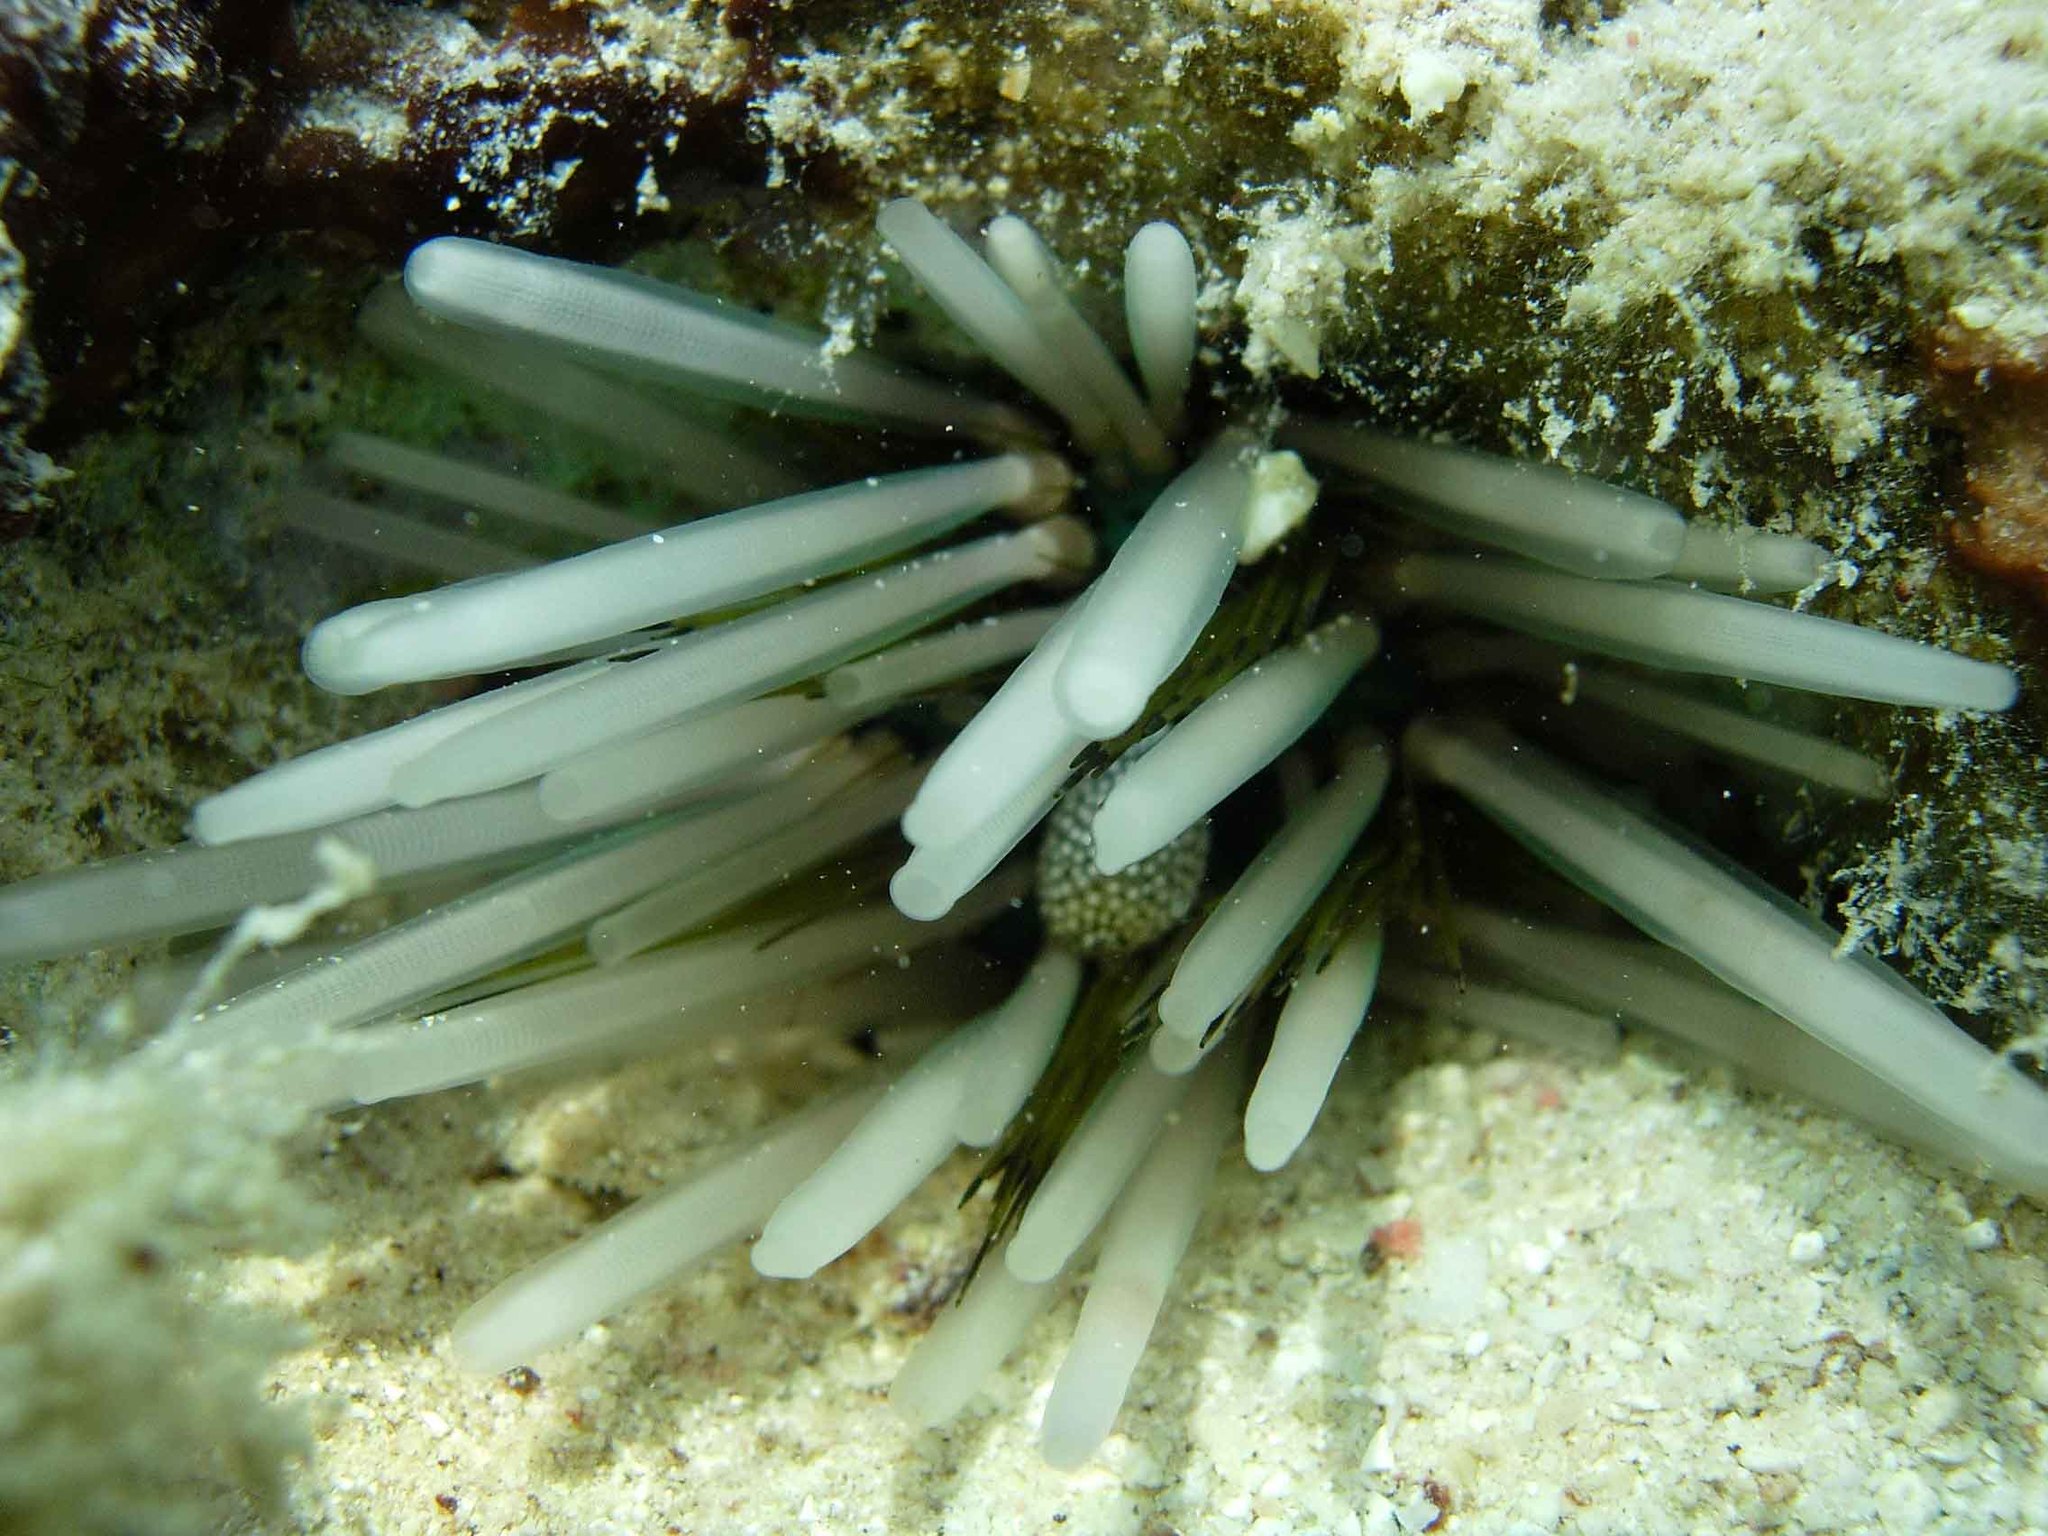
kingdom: Animalia
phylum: Echinodermata
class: Echinoidea
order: Diadematoida
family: Diadematidae
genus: Echinothrix
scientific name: Echinothrix calamaris
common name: Banded sea urchin
